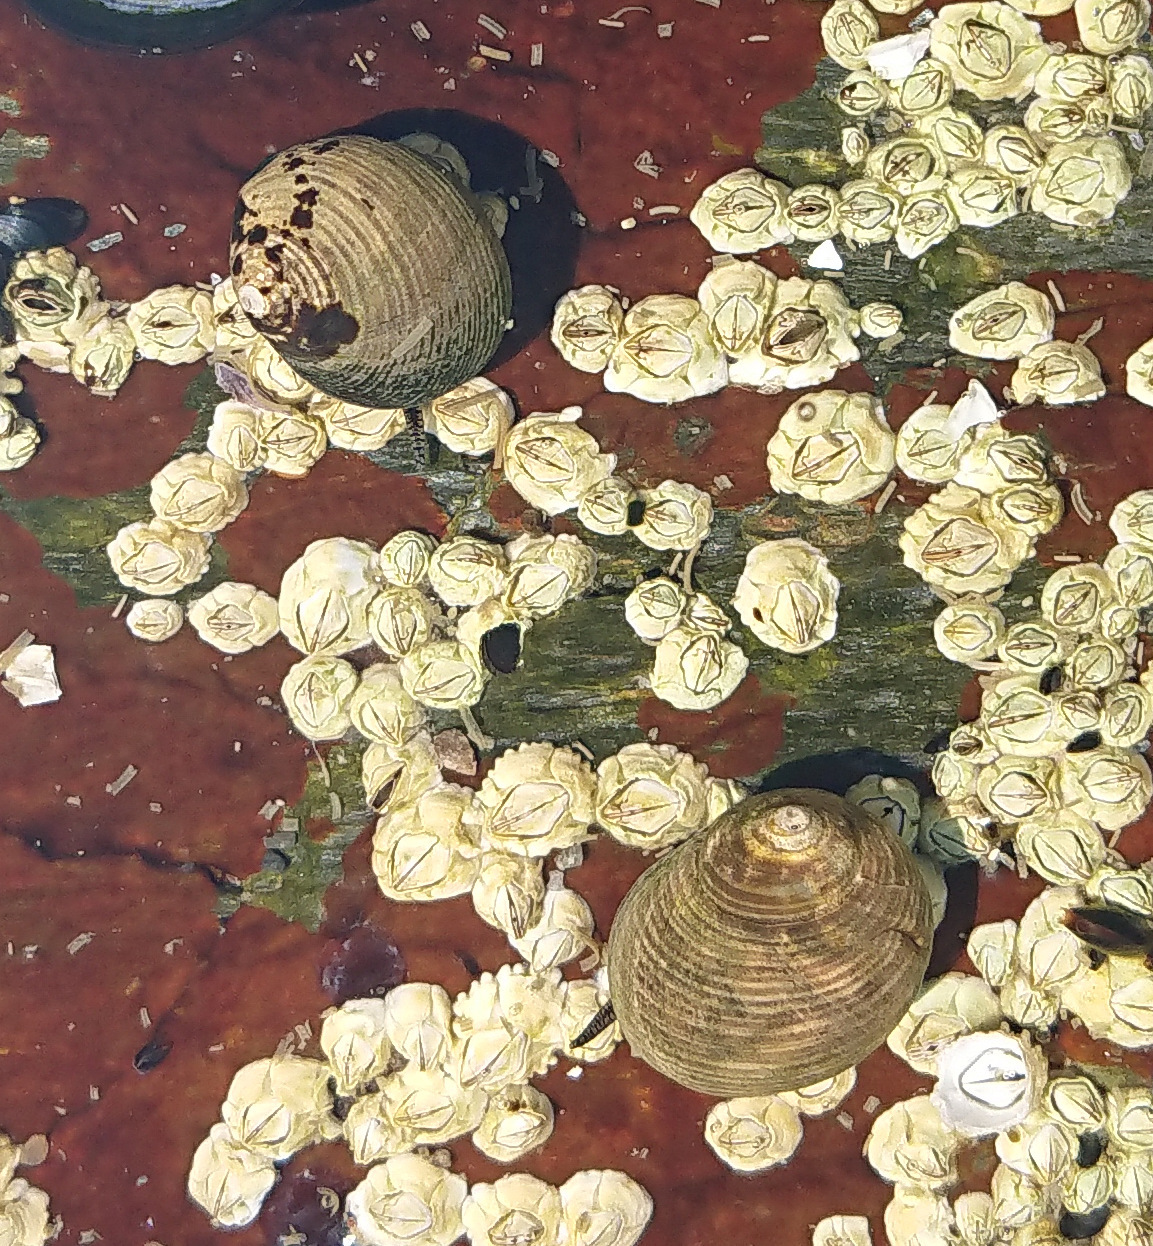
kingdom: Animalia
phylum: Mollusca
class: Gastropoda
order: Littorinimorpha
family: Littorinidae
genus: Littorina
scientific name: Littorina littorea
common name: Common periwinkle
